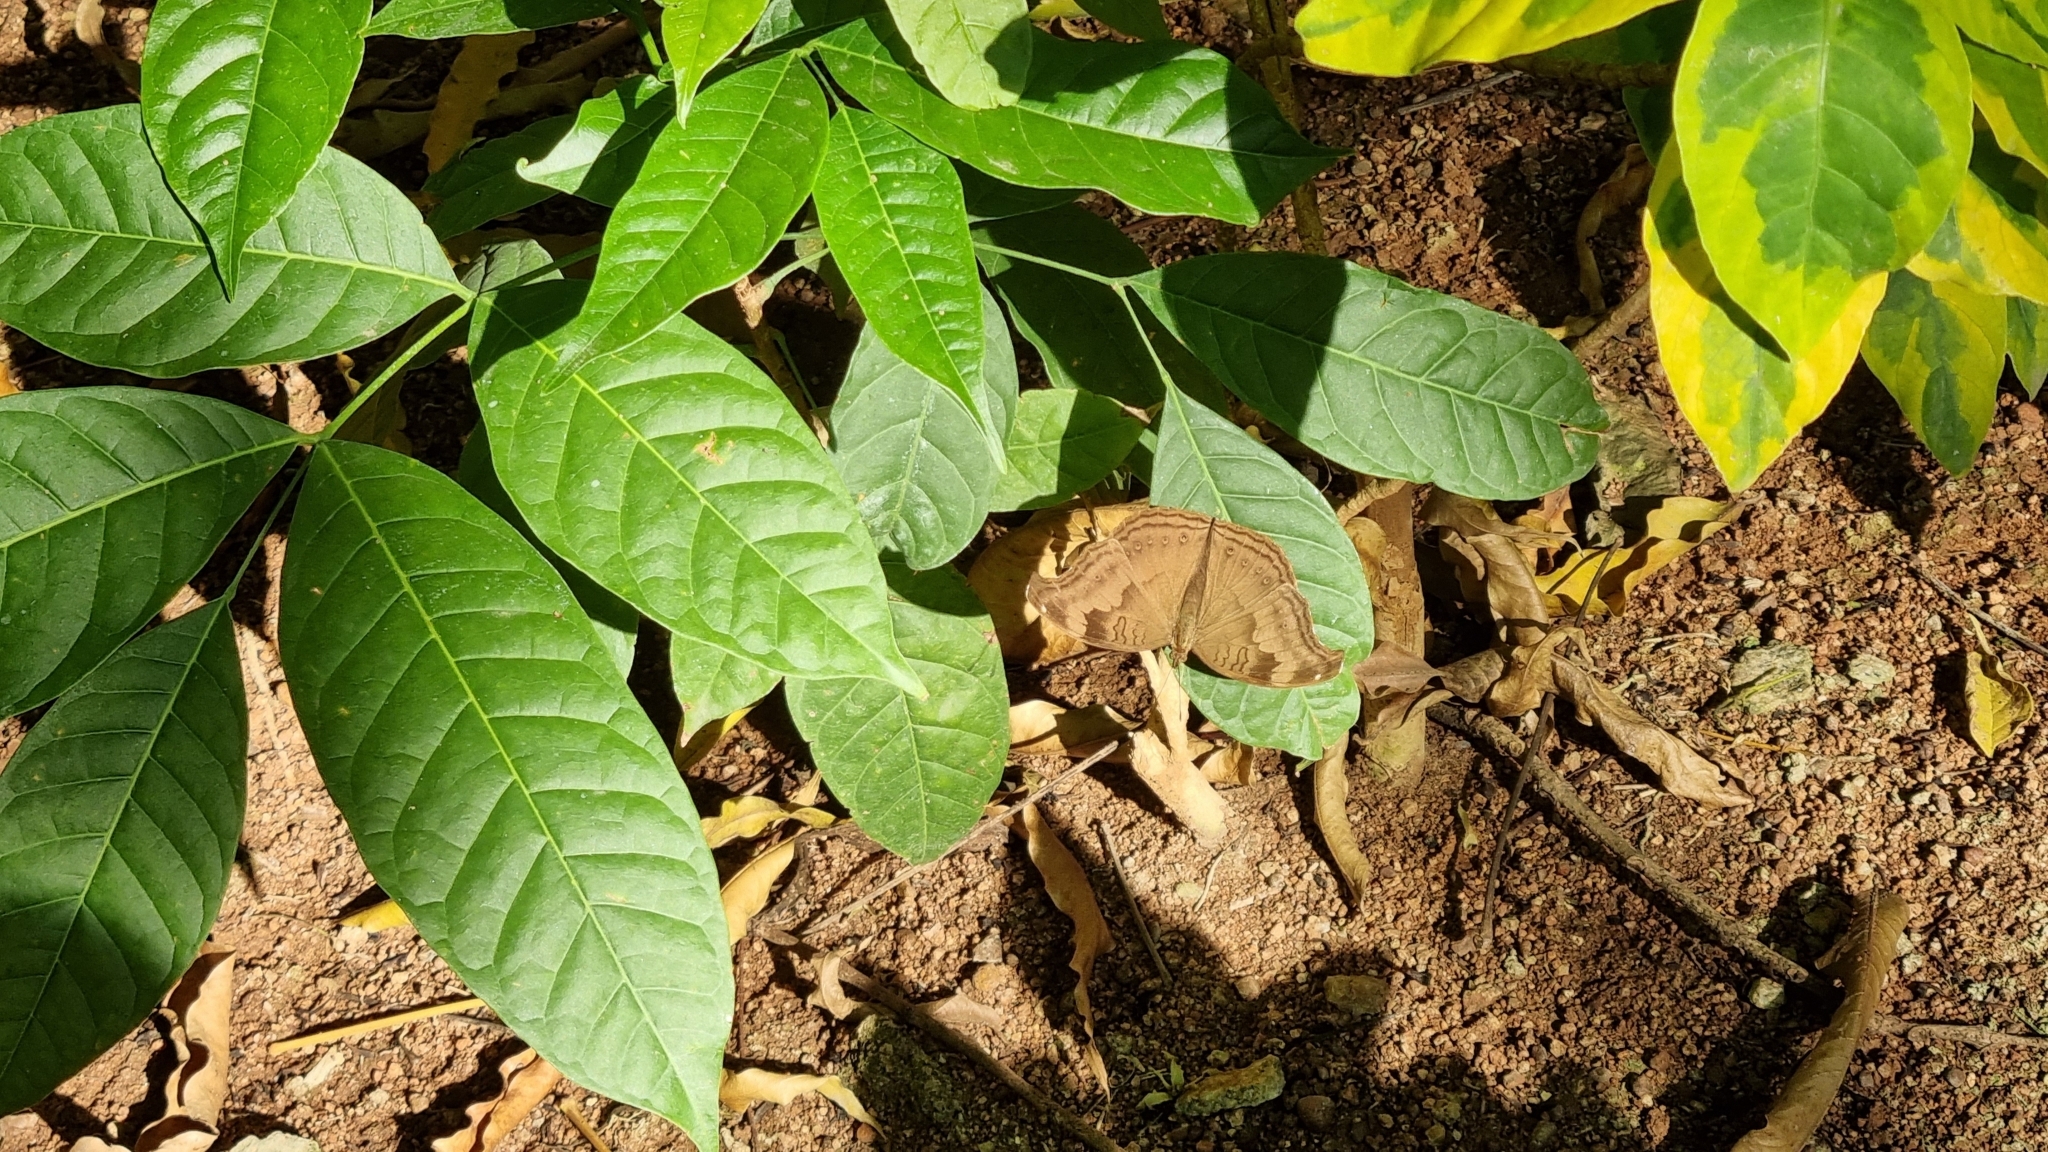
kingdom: Animalia
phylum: Arthropoda
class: Insecta
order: Lepidoptera
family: Nymphalidae
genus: Junonia
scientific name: Junonia iphita
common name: Chocolate pansy
